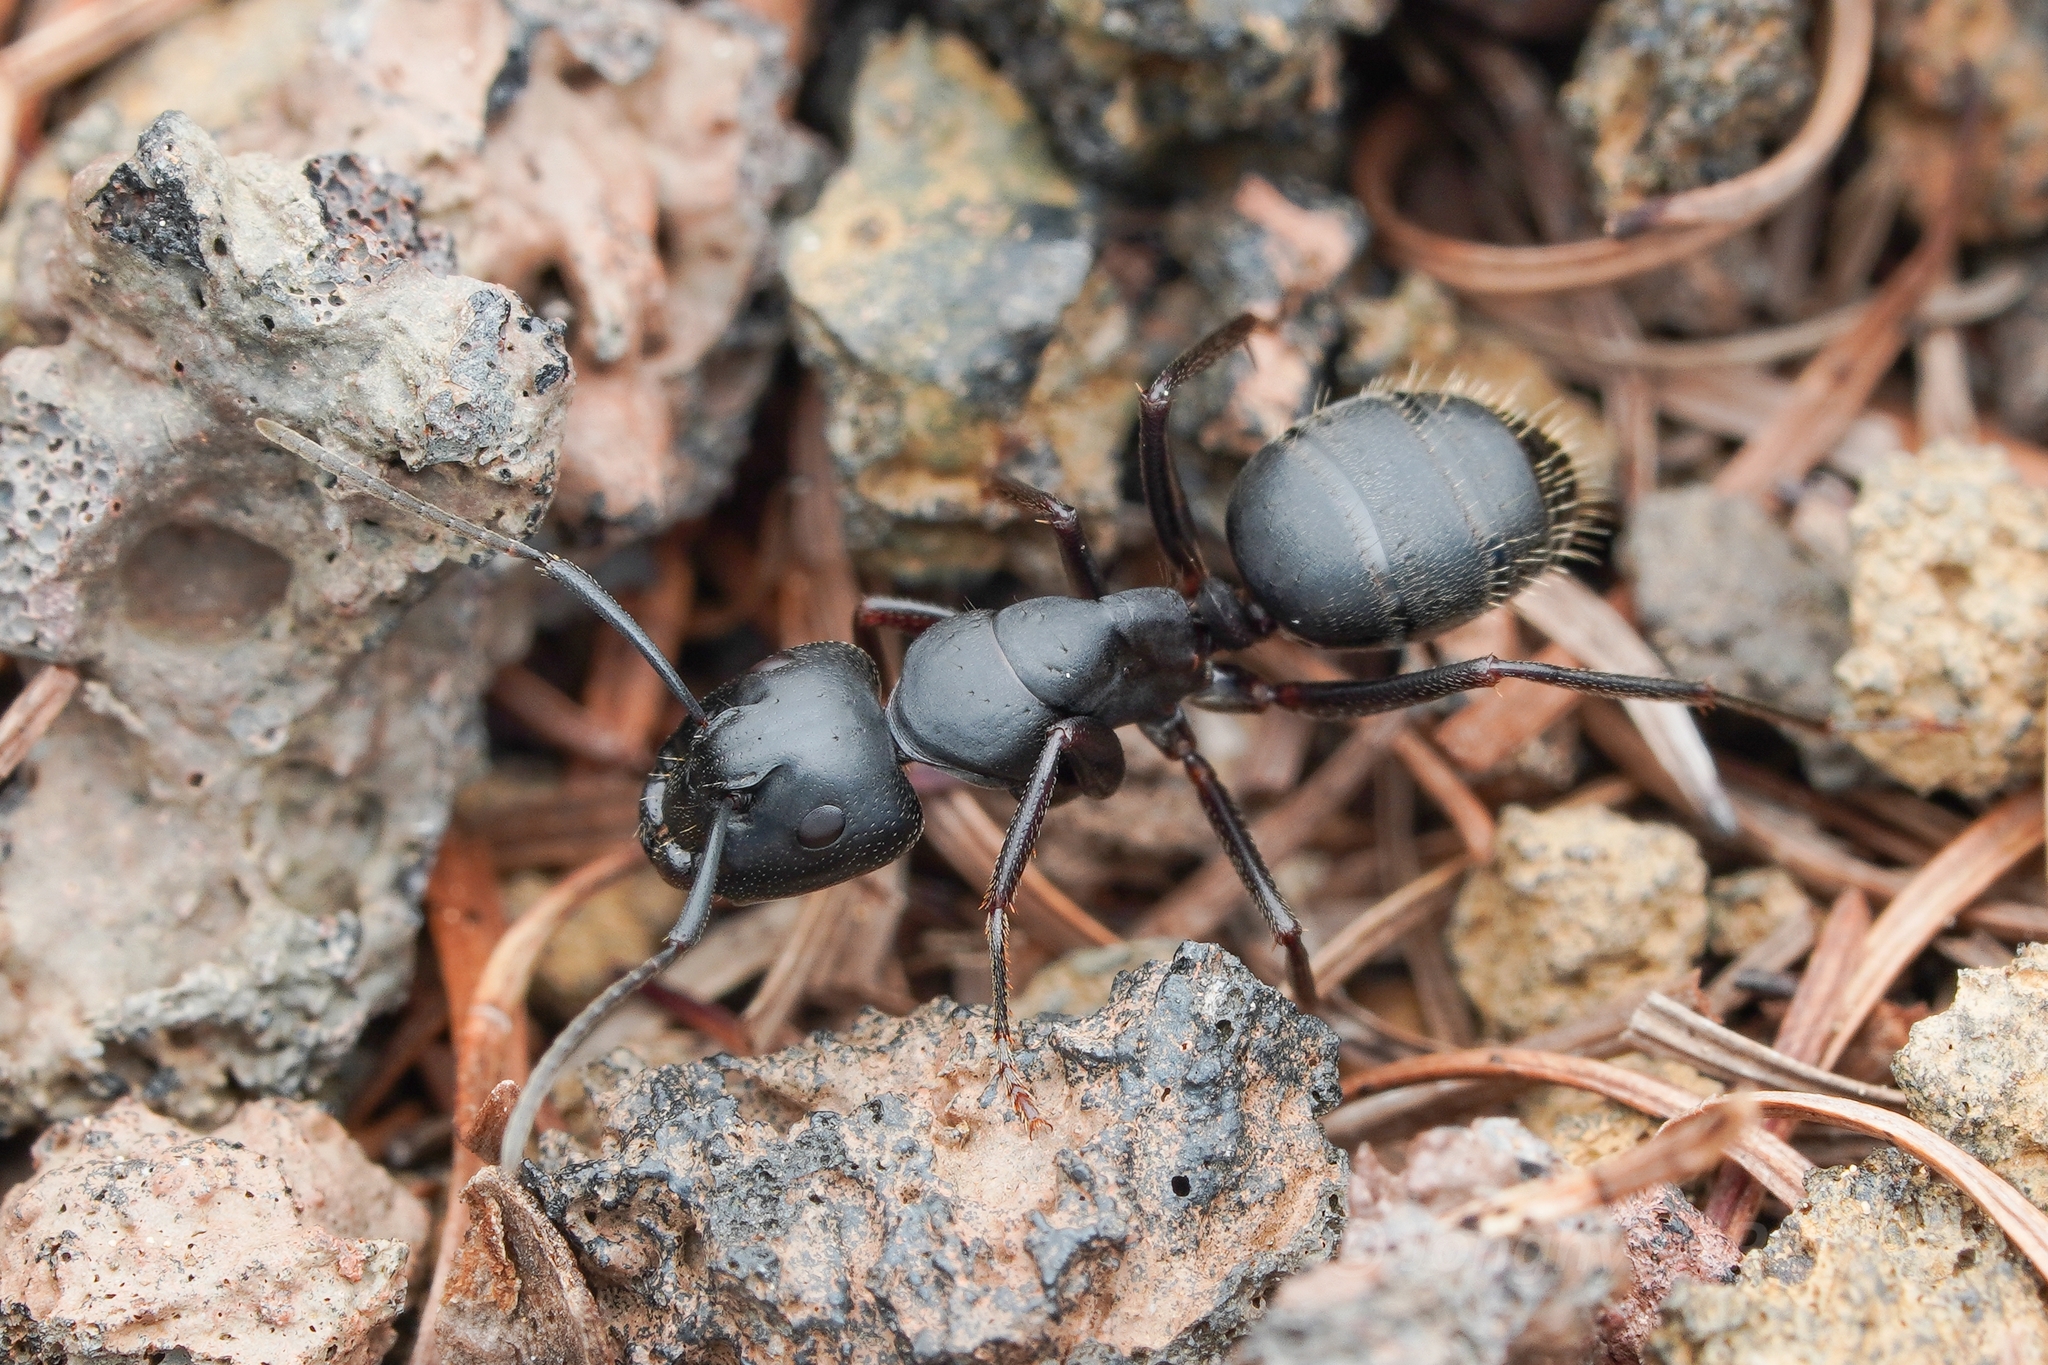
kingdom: Animalia
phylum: Arthropoda
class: Insecta
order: Hymenoptera
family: Formicidae
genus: Camponotus
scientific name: Camponotus herculeanus
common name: Hercules ant
